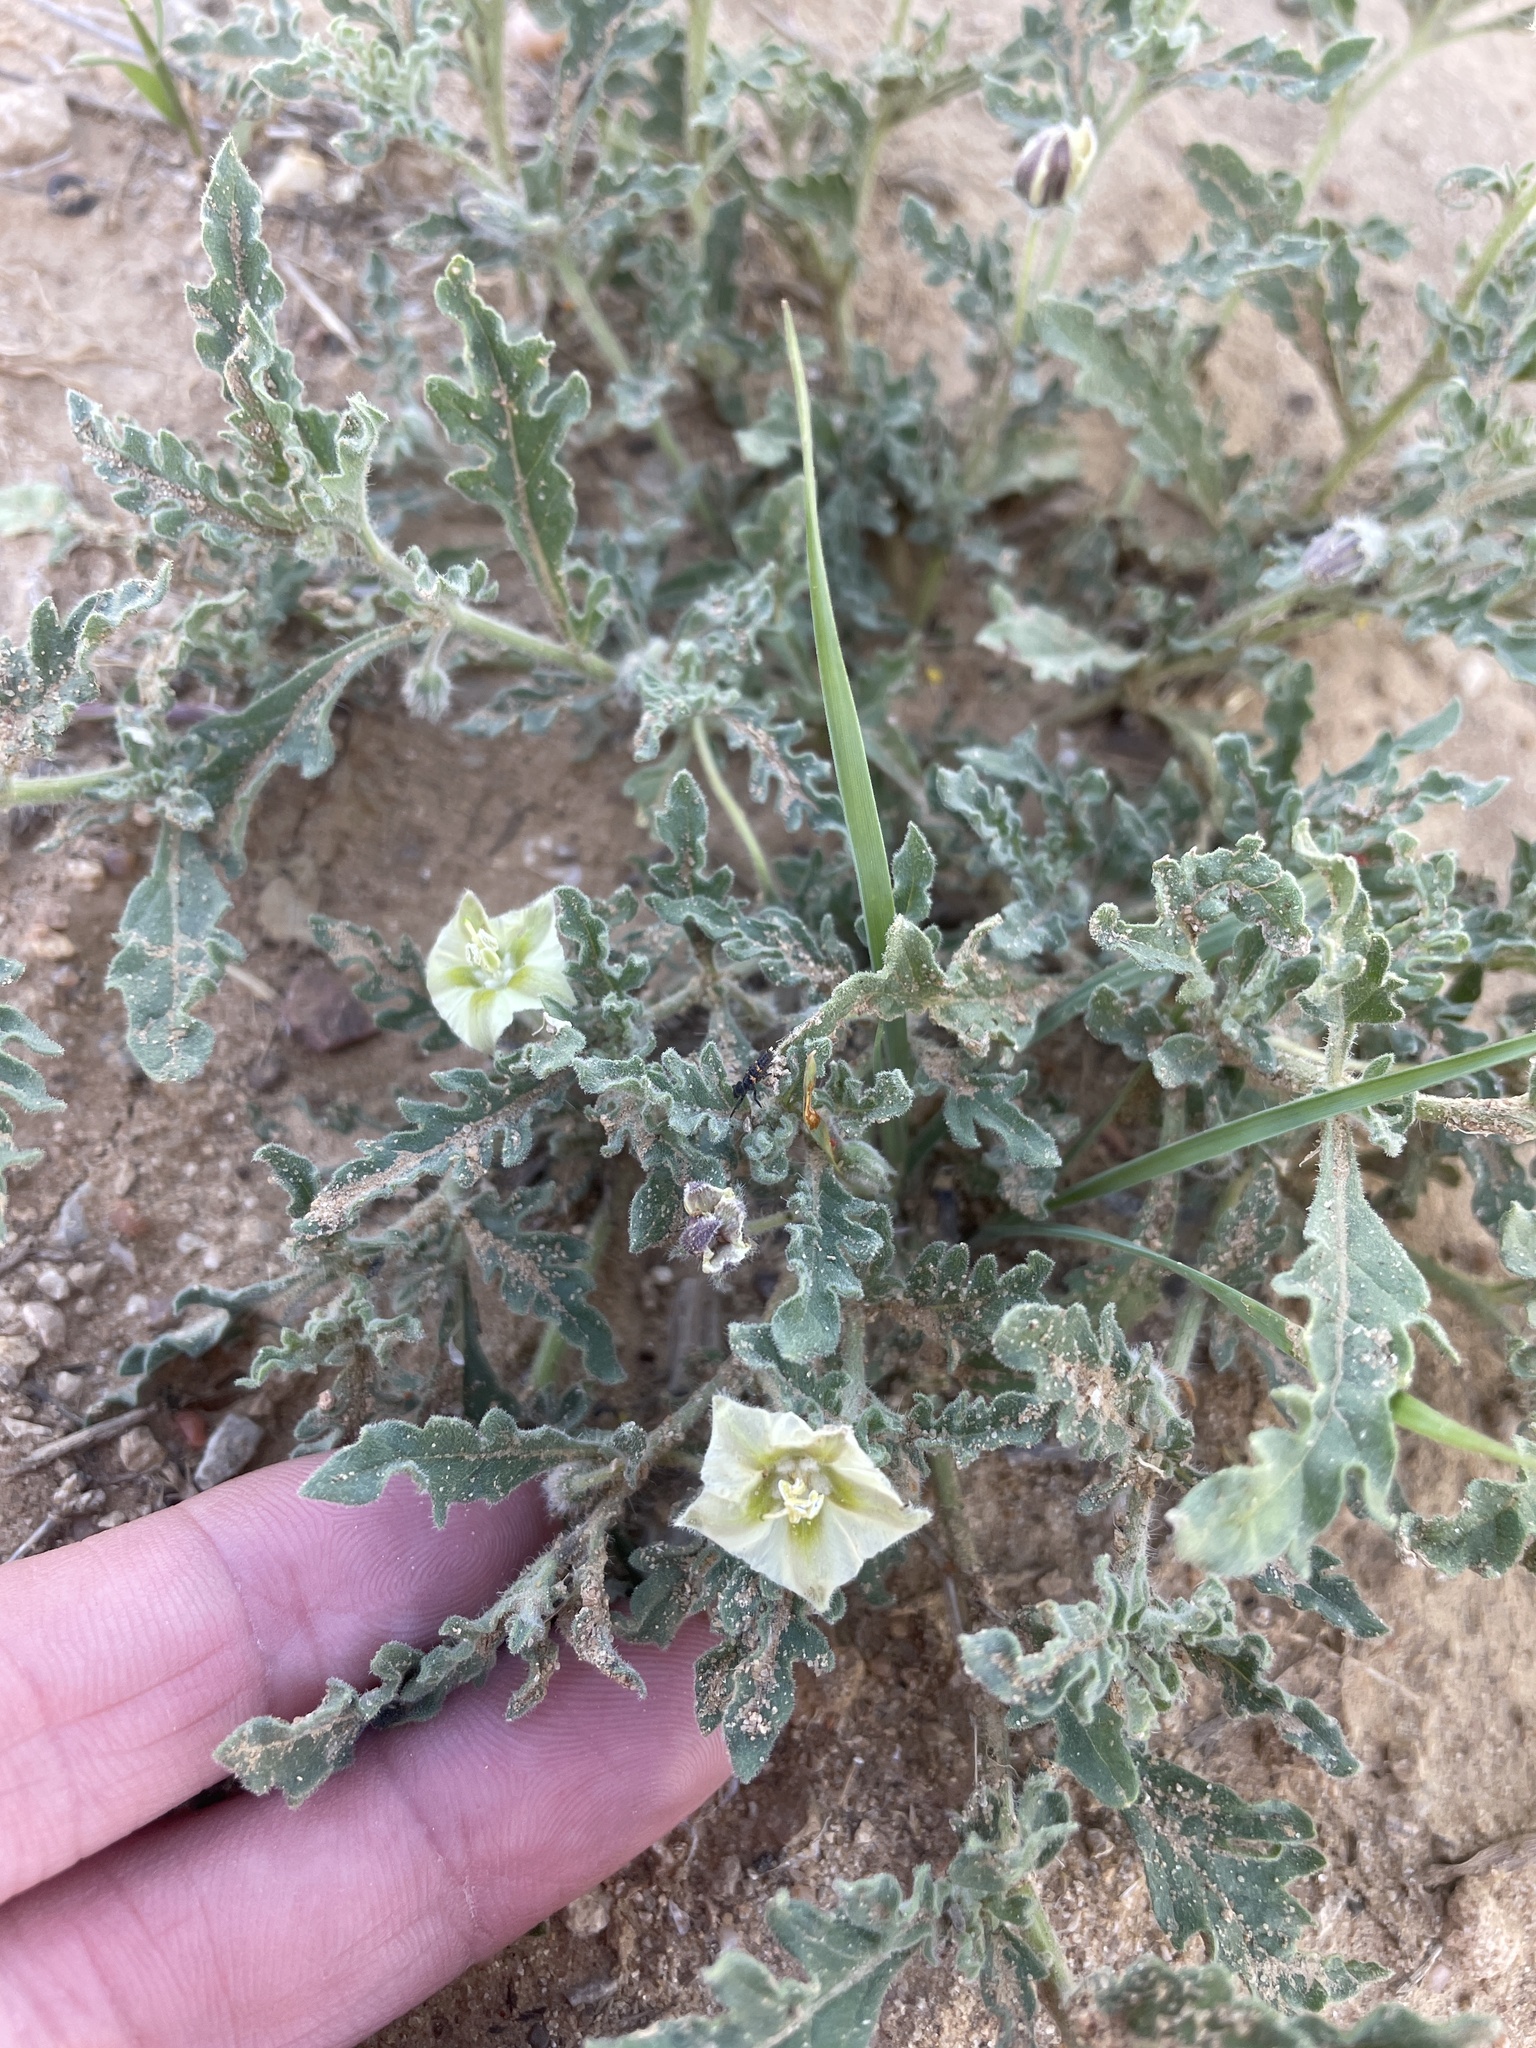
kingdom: Plantae
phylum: Tracheophyta
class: Magnoliopsida
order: Solanales
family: Solanaceae
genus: Chamaesaracha
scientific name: Chamaesaracha coniodes
